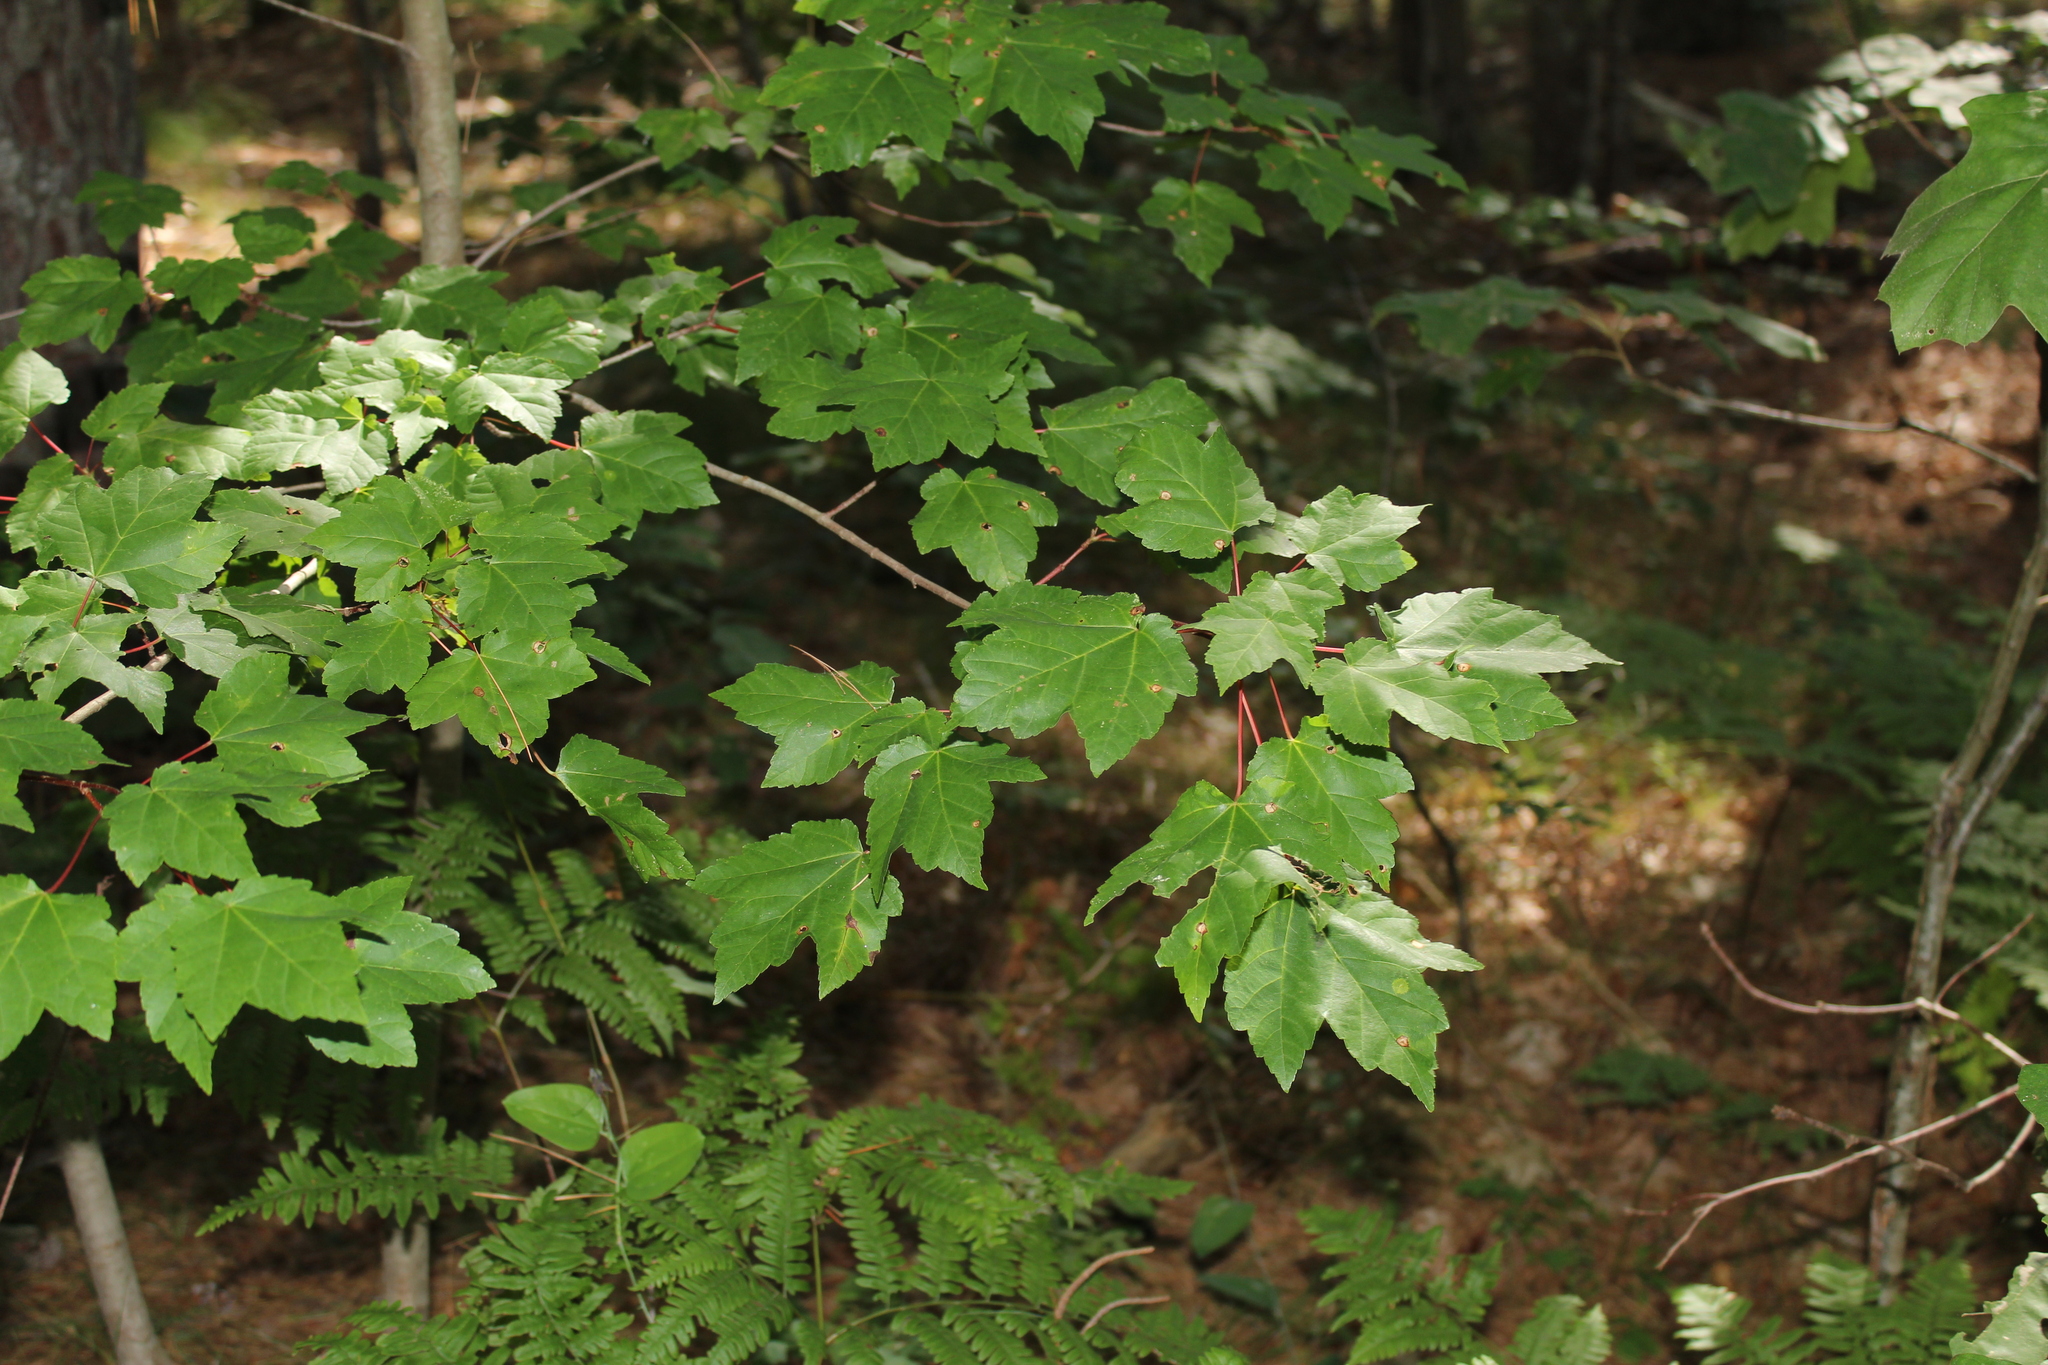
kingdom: Plantae
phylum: Tracheophyta
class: Magnoliopsida
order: Sapindales
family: Sapindaceae
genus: Acer
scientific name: Acer rubrum
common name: Red maple
